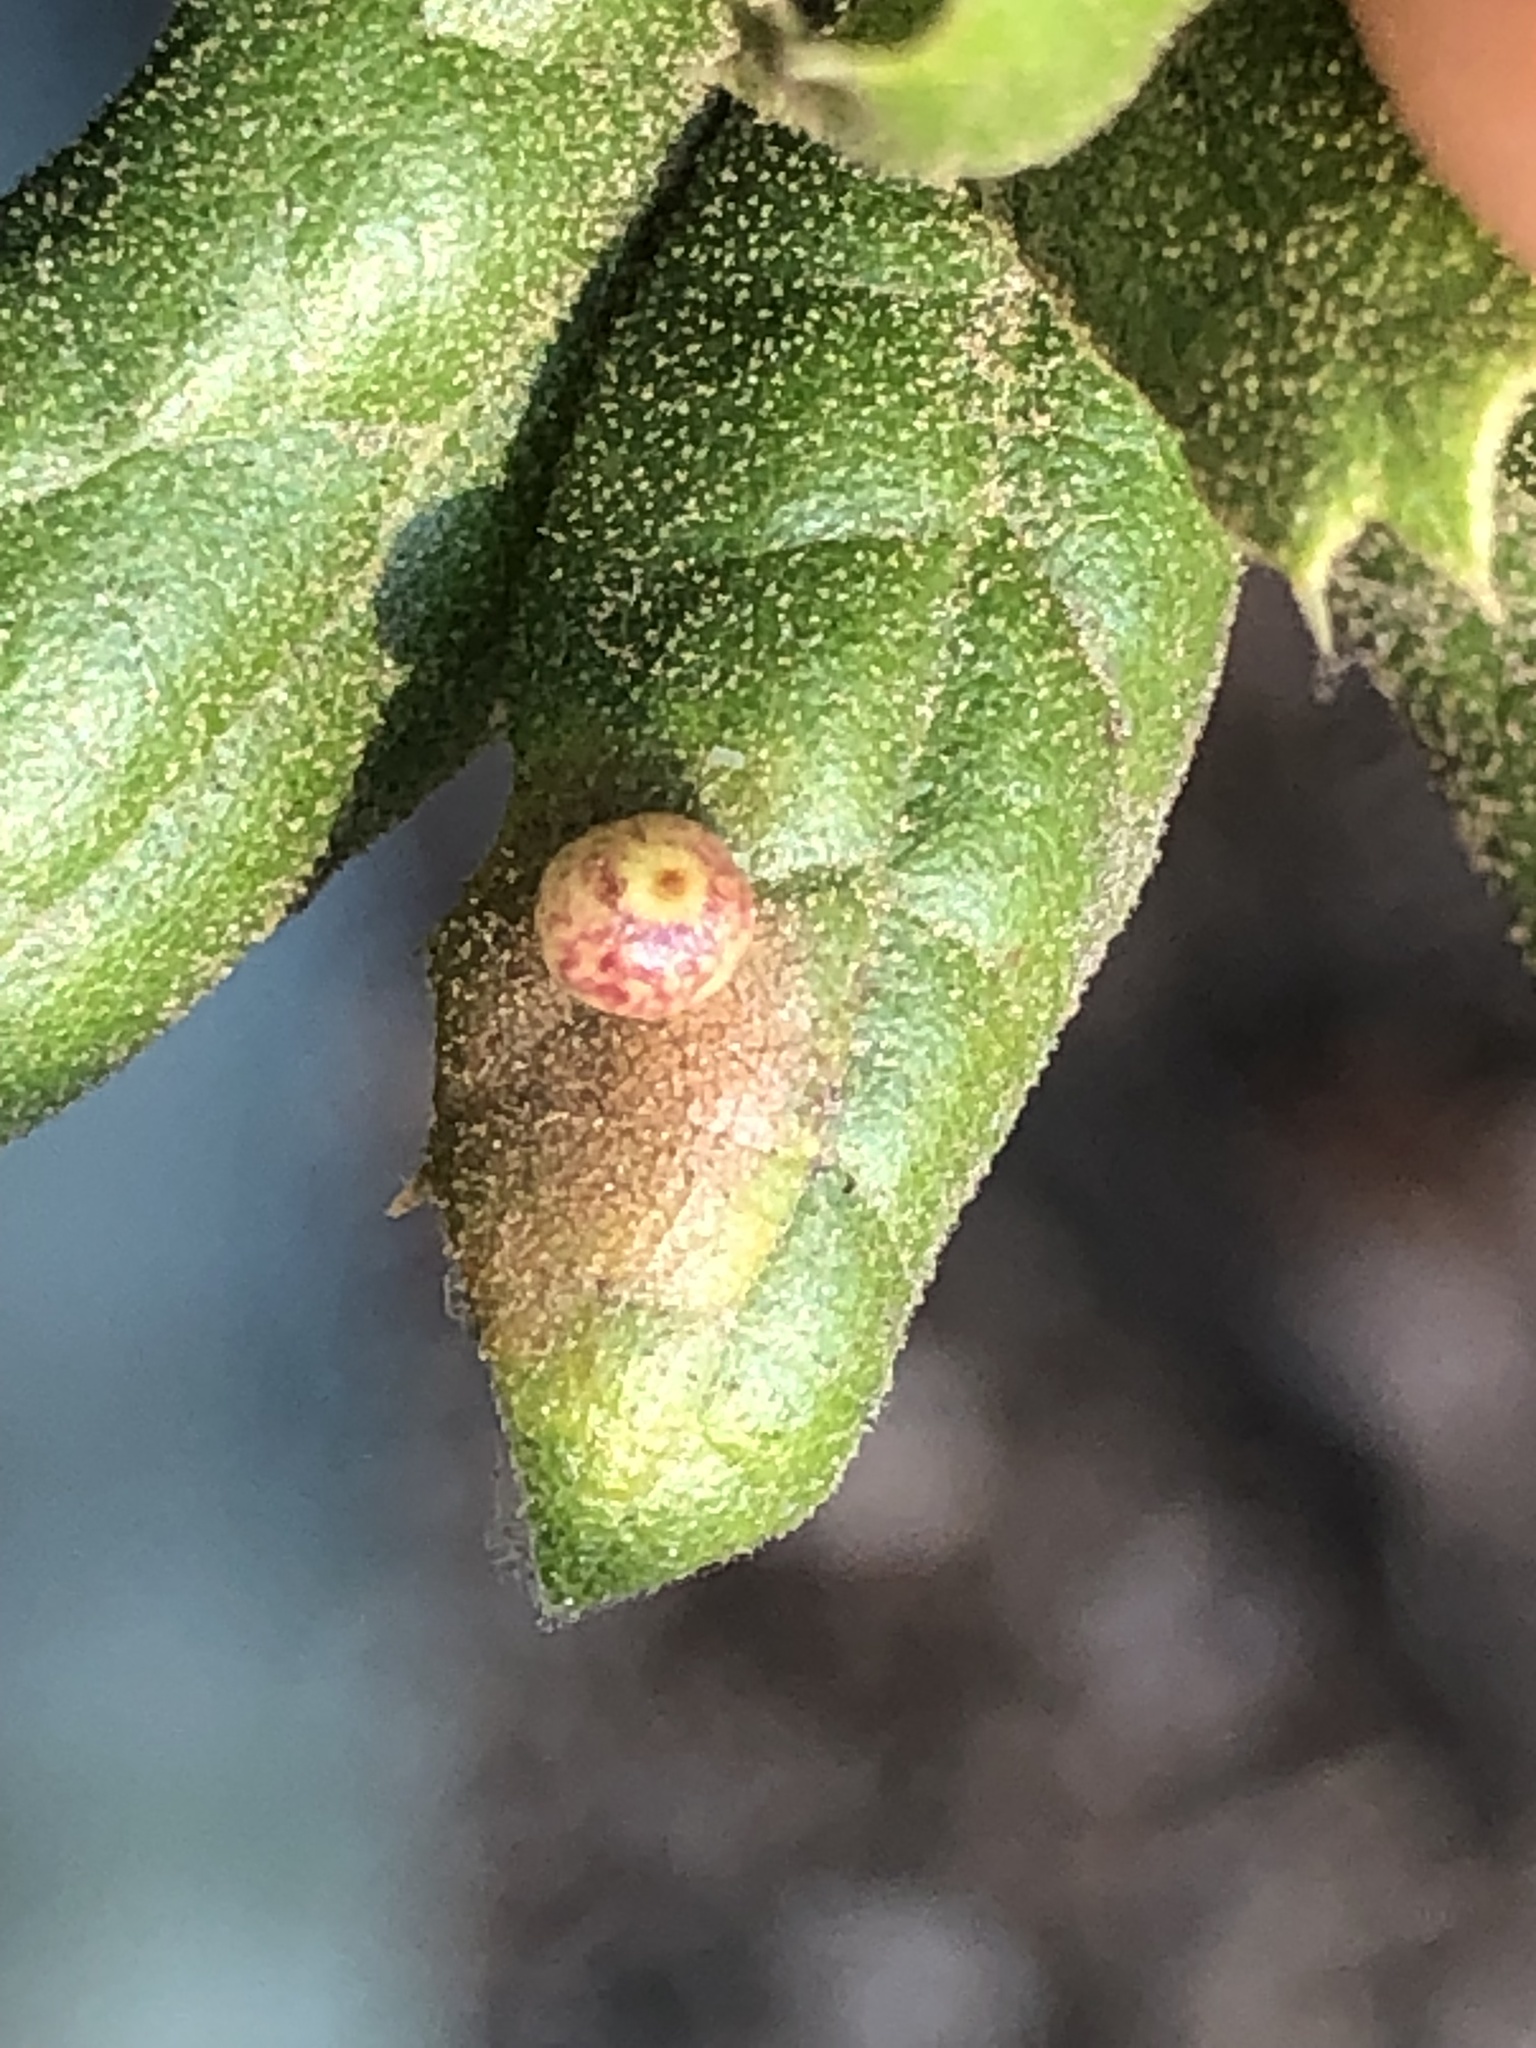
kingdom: Animalia
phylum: Arthropoda
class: Insecta
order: Hymenoptera
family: Cynipidae
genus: Dryocosmus
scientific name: Dryocosmus
